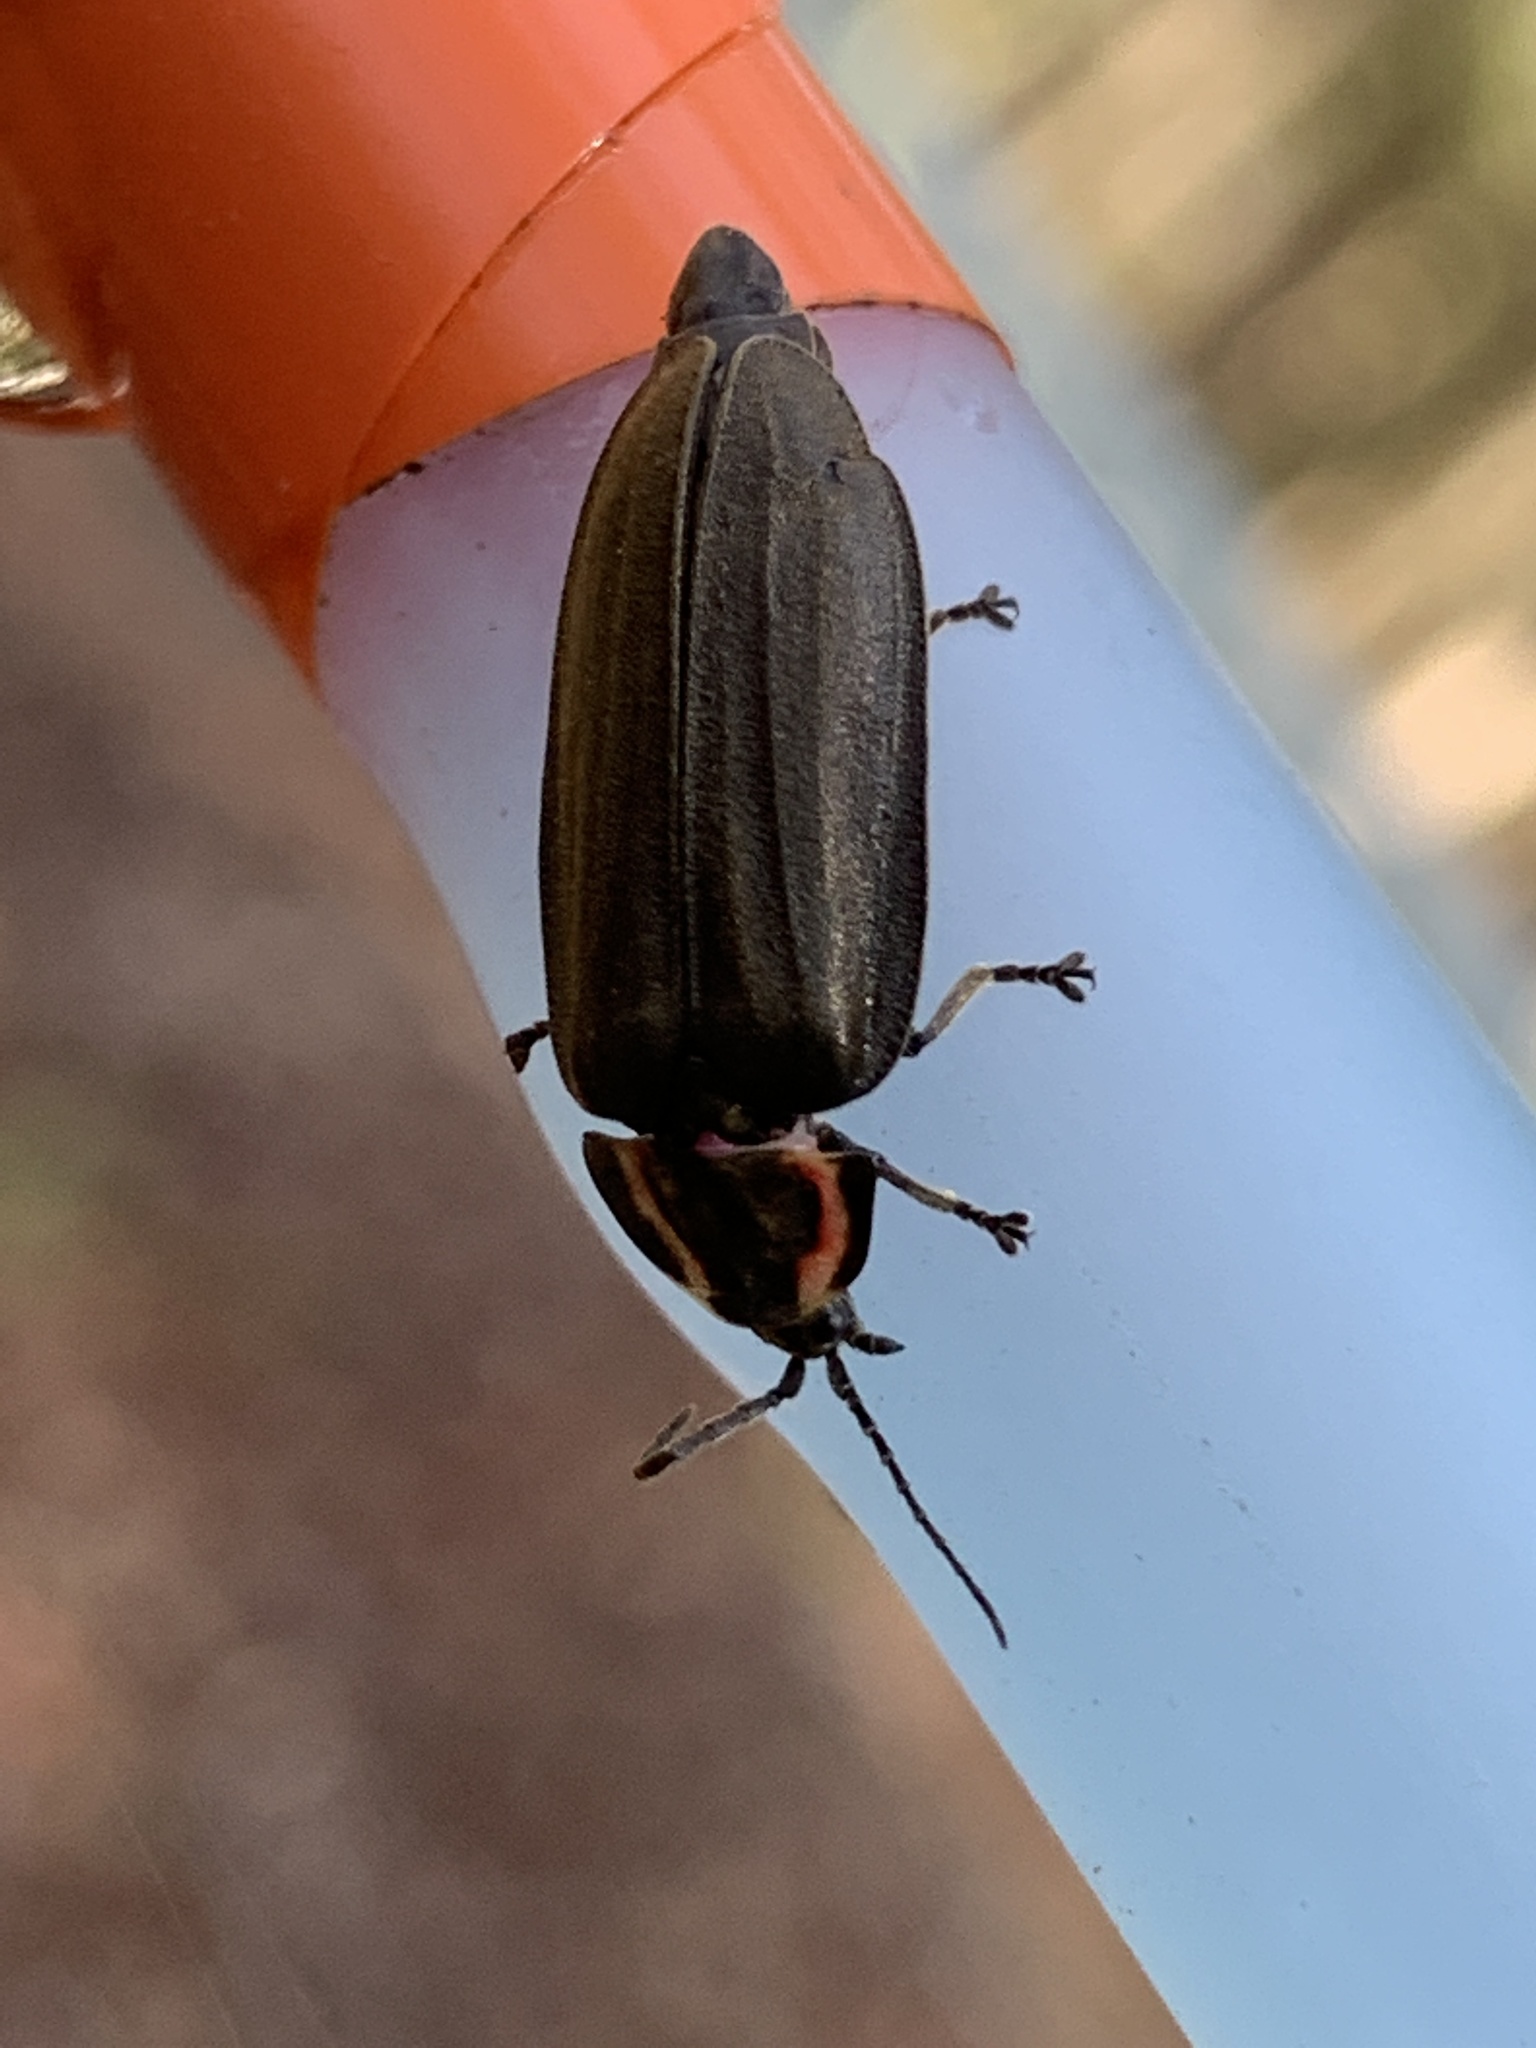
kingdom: Animalia
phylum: Arthropoda
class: Insecta
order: Coleoptera
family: Lampyridae
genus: Photinus
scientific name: Photinus corrusca
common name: Winter firefly
